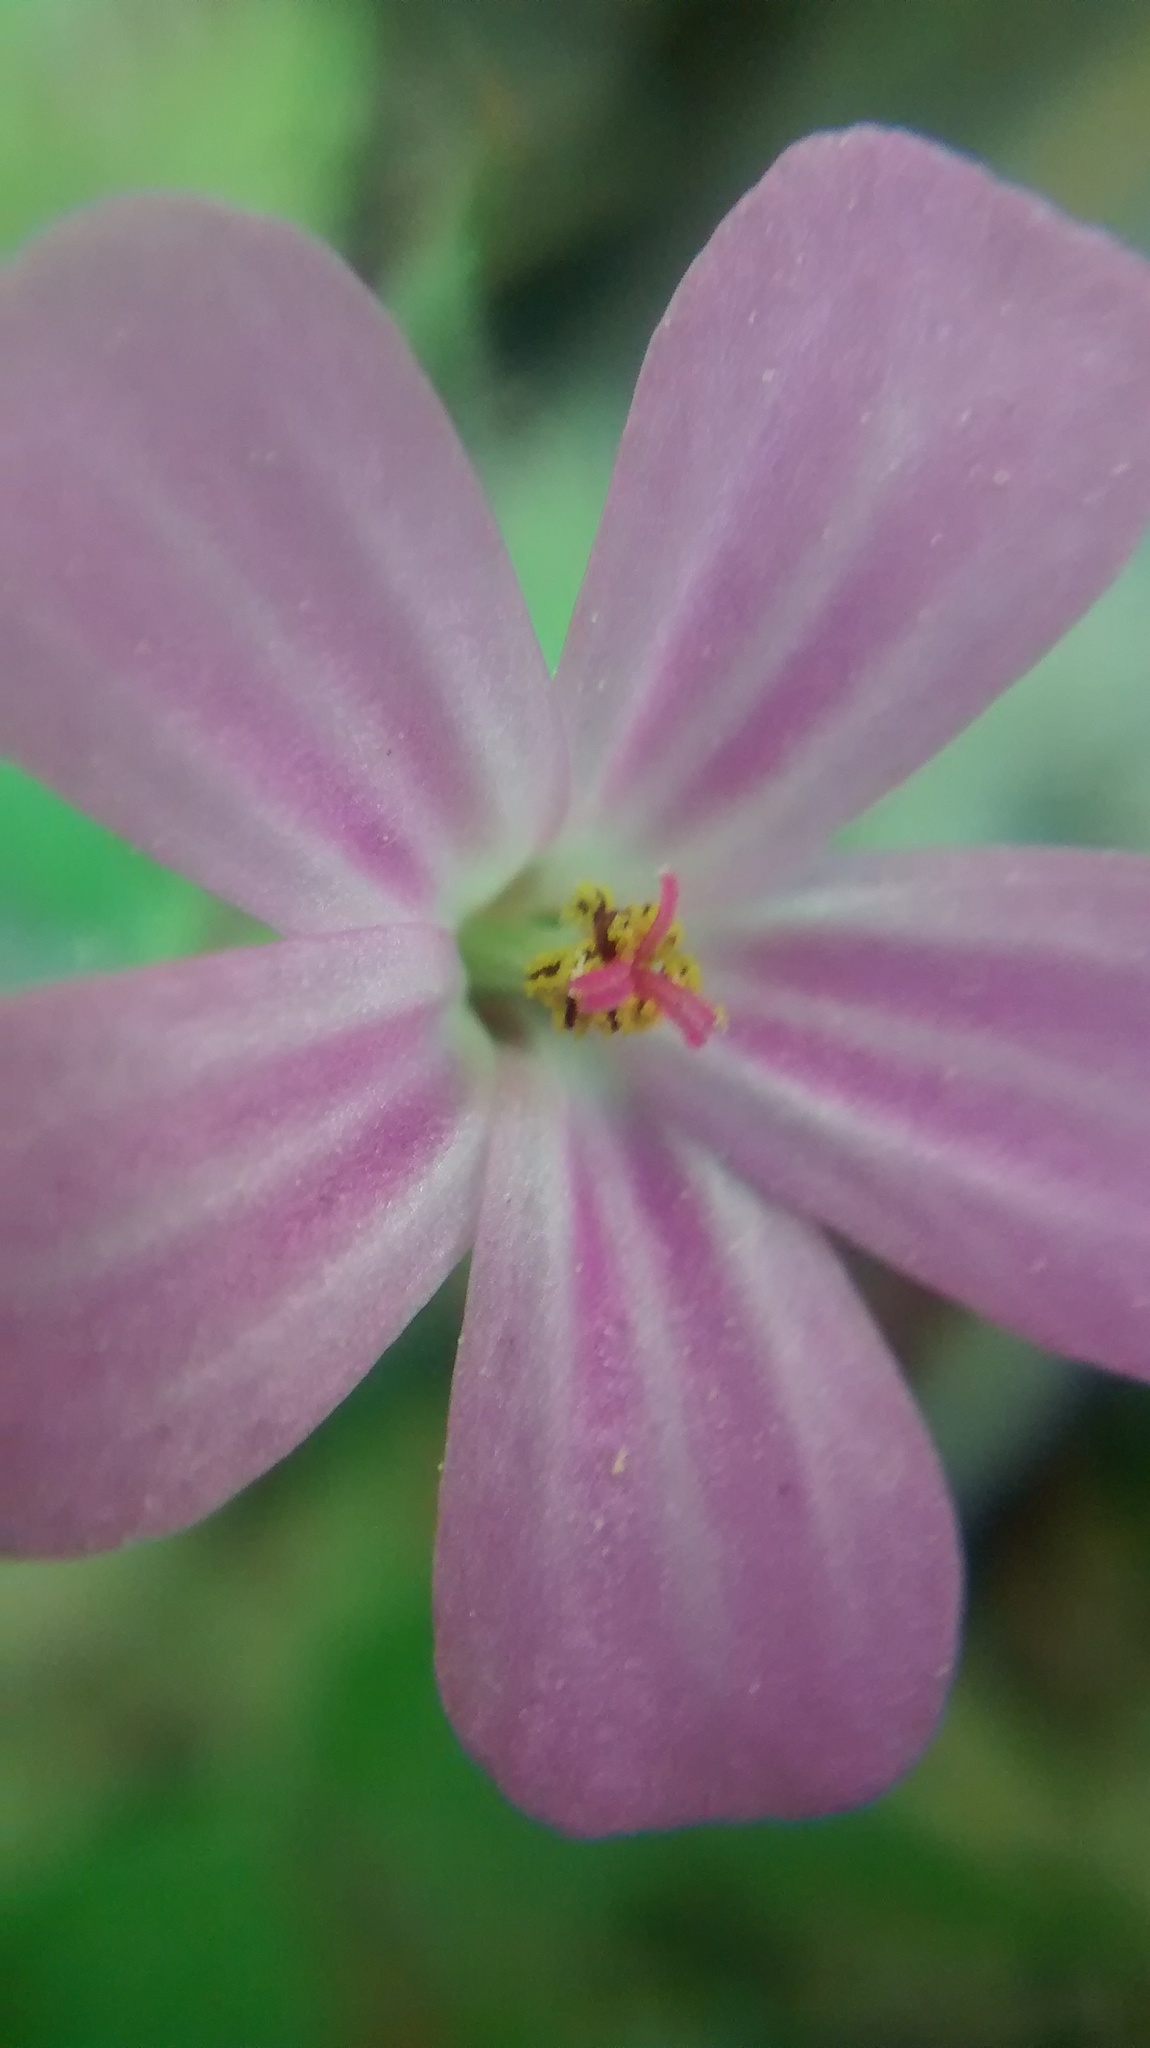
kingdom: Plantae
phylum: Tracheophyta
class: Magnoliopsida
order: Geraniales
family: Geraniaceae
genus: Geranium
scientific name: Geranium robertianum
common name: Herb-robert
